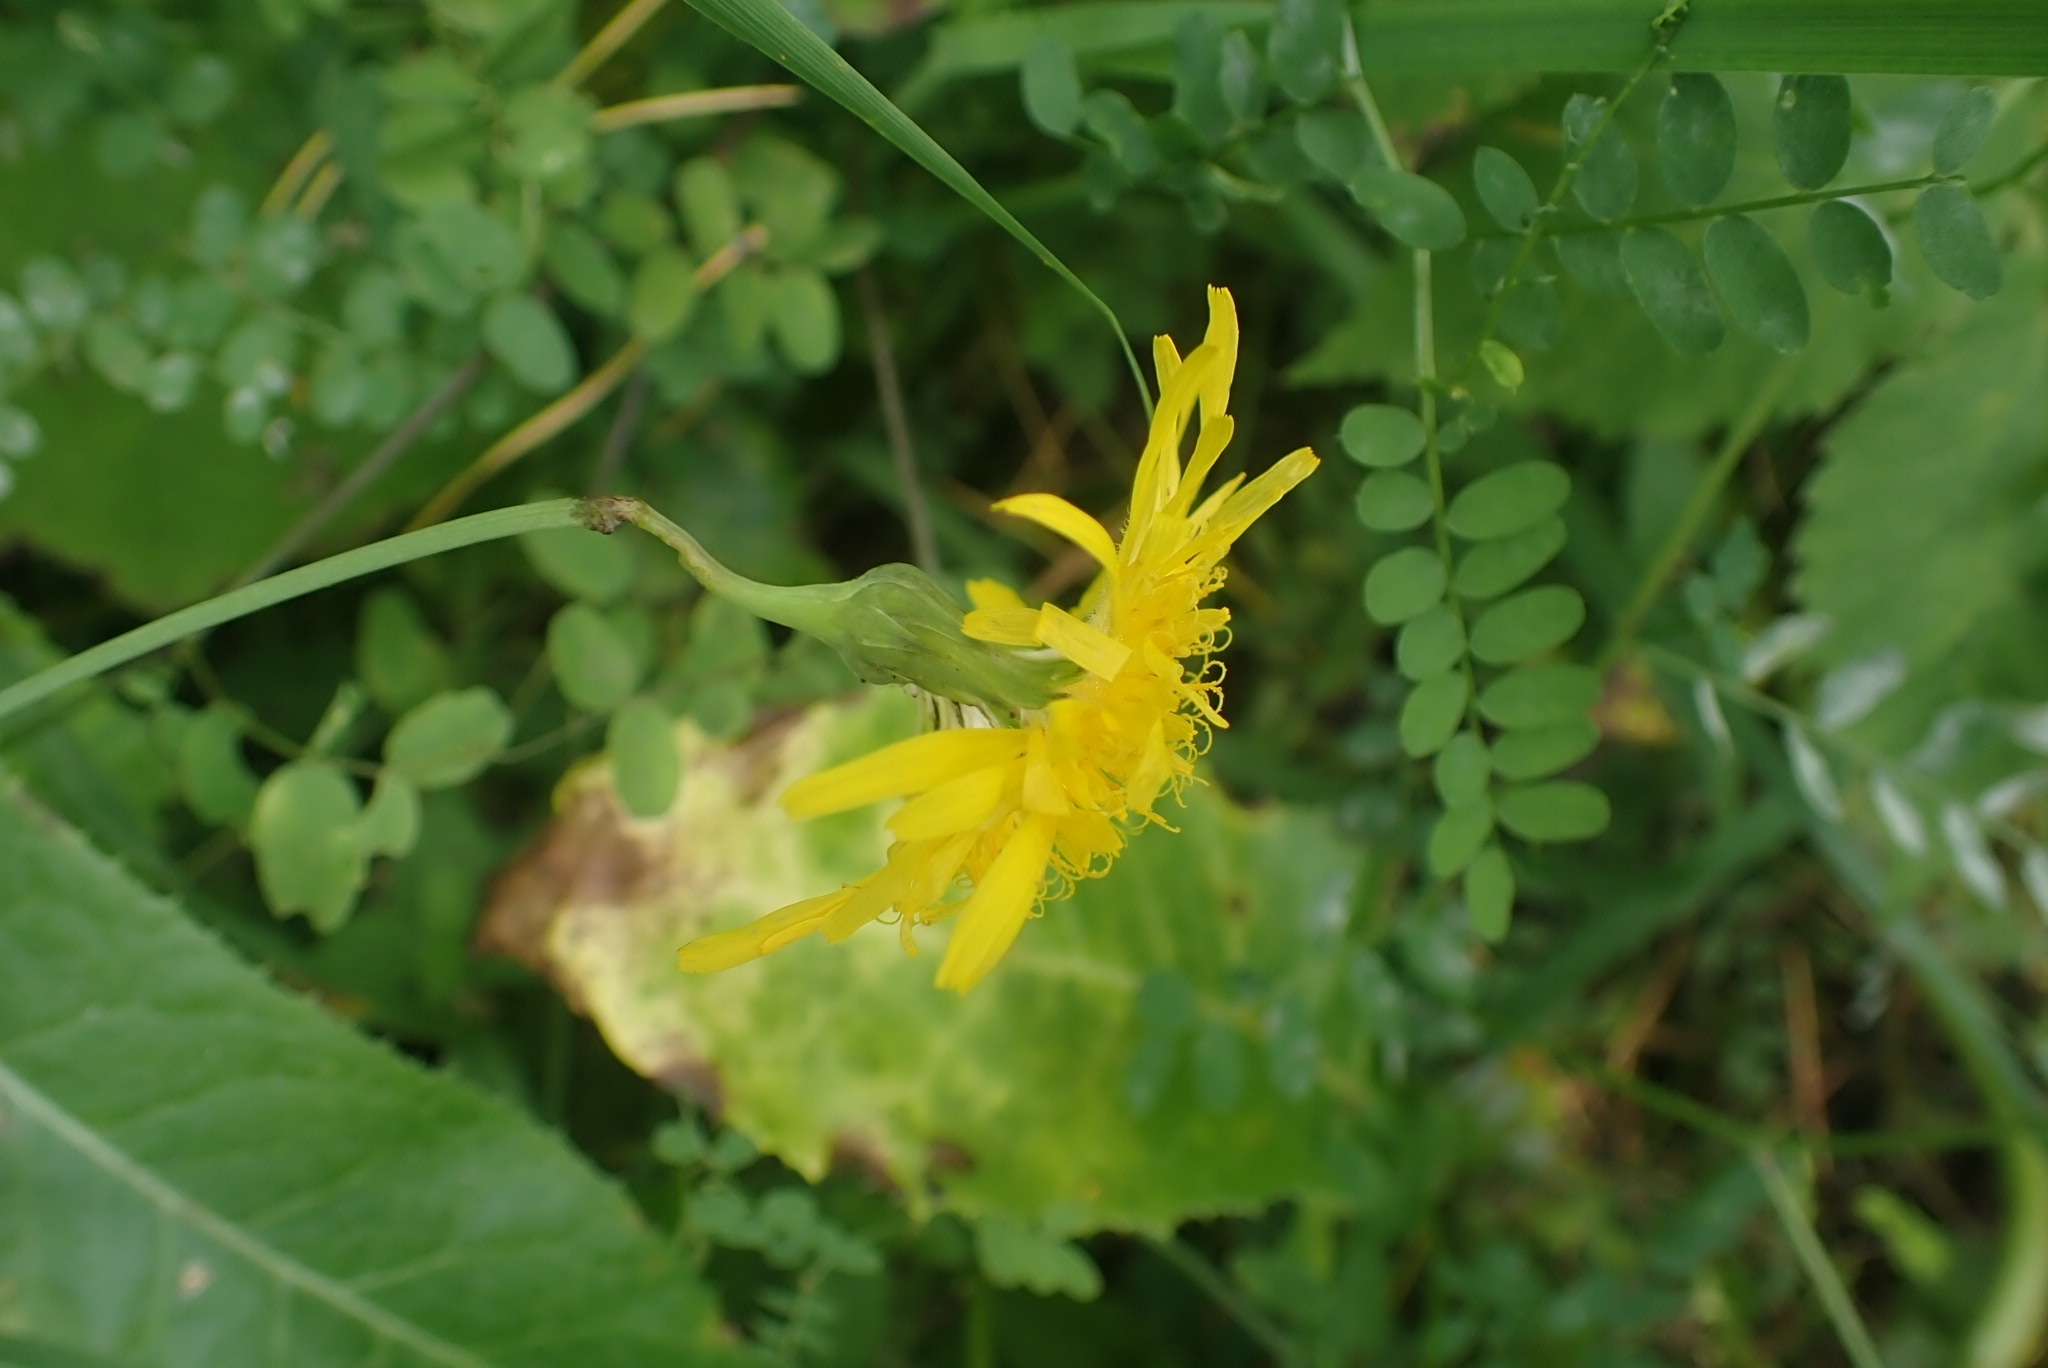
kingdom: Plantae
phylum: Tracheophyta
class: Magnoliopsida
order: Asterales
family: Asteraceae
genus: Sonchus
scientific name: Sonchus arvensis
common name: Perennial sow-thistle
